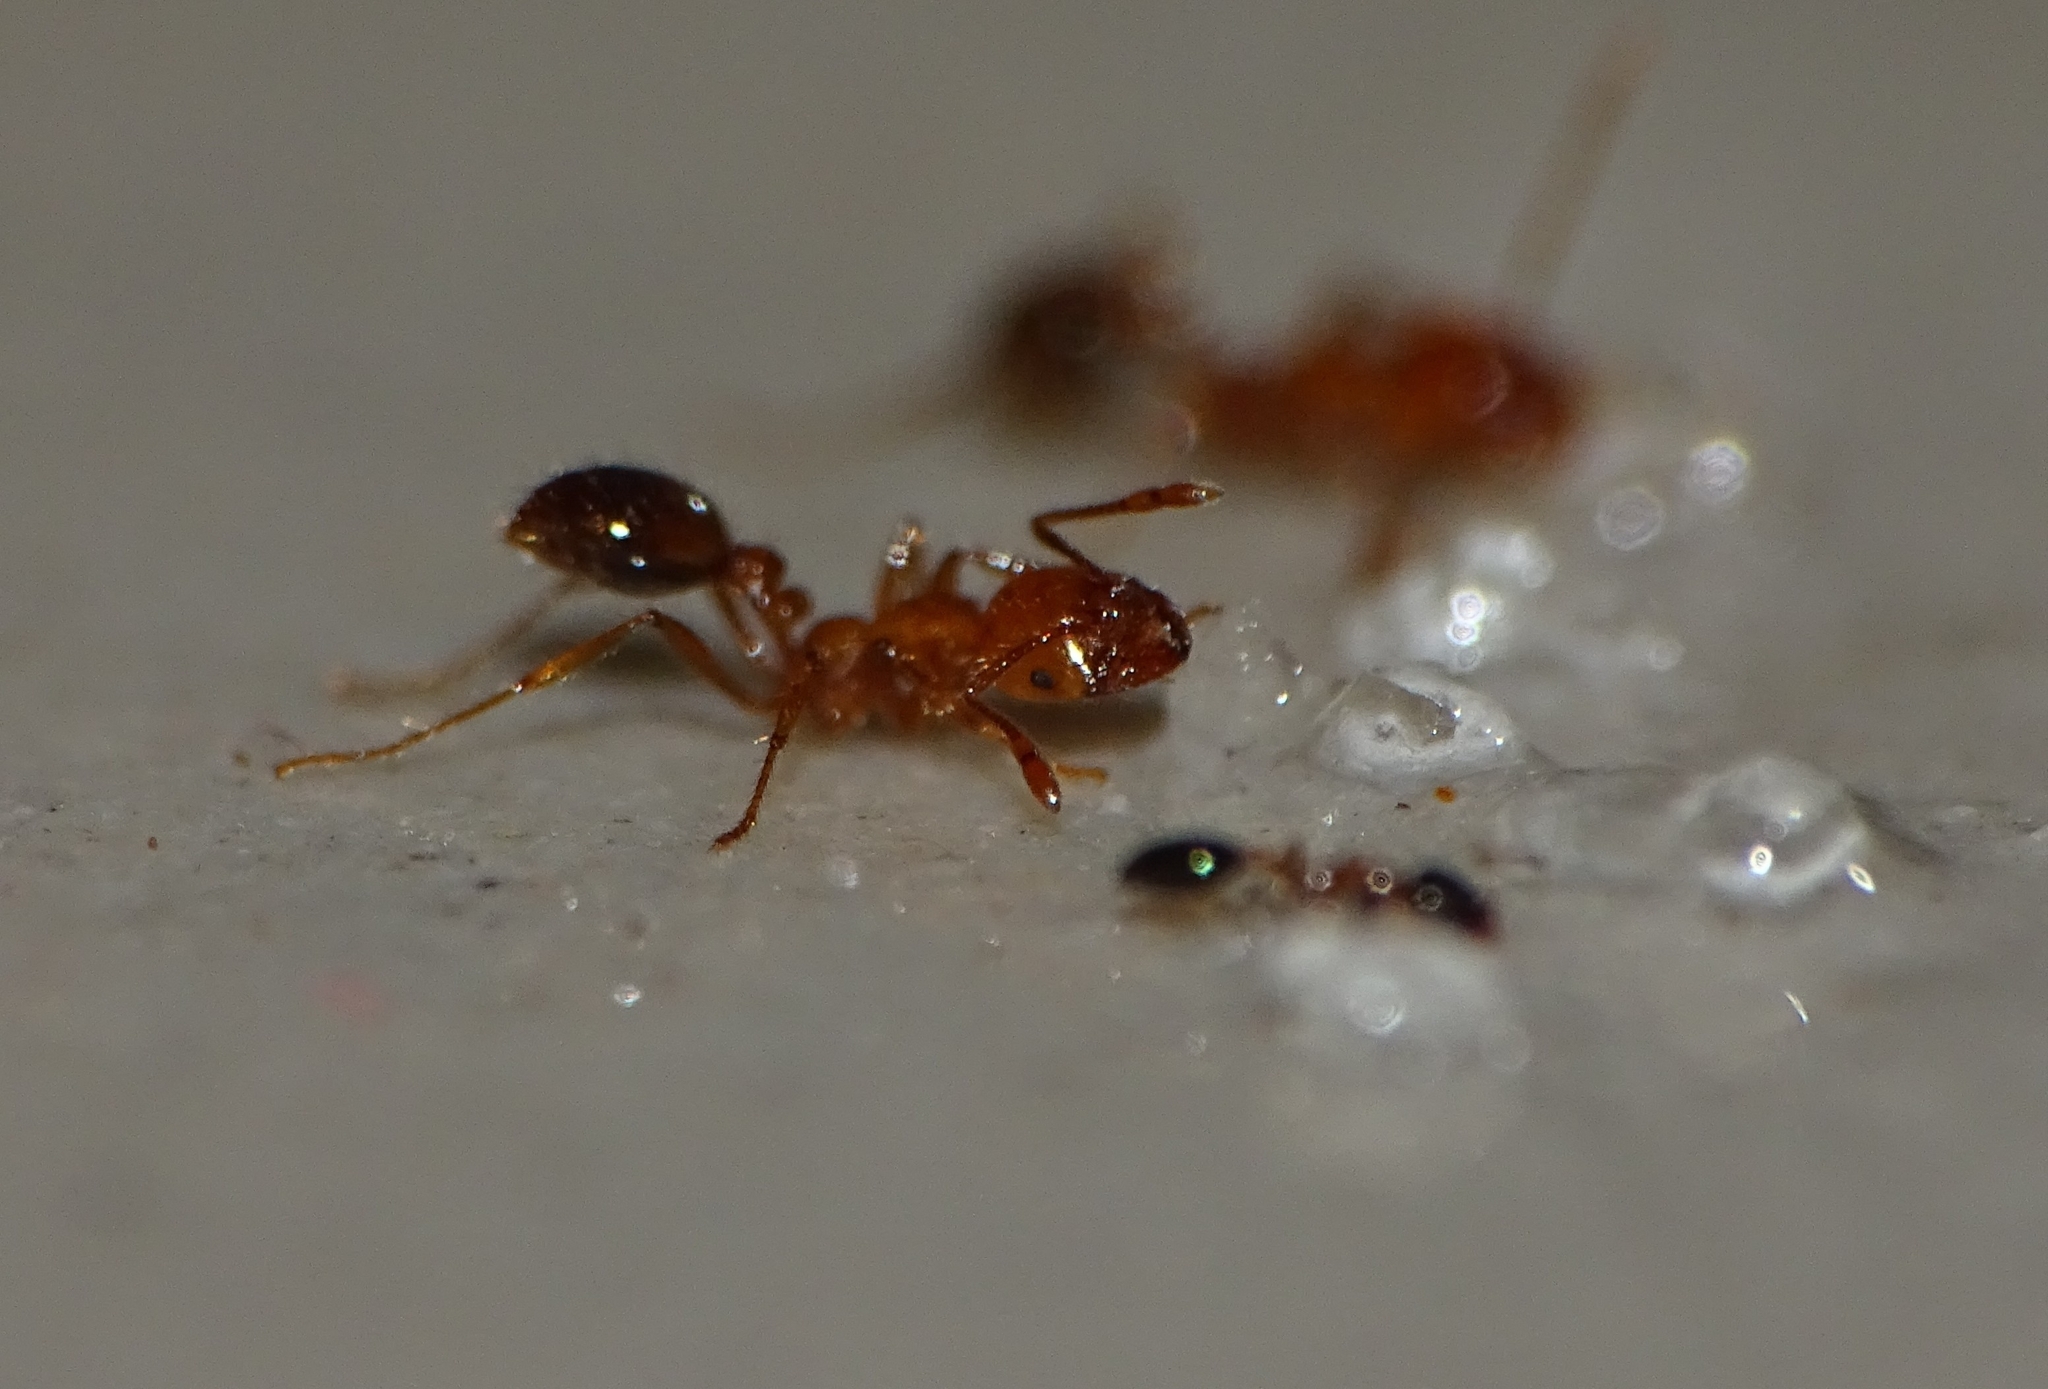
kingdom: Animalia
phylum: Arthropoda
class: Insecta
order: Hymenoptera
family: Formicidae
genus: Solenopsis
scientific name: Solenopsis geminata
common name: Tropical fire ant
